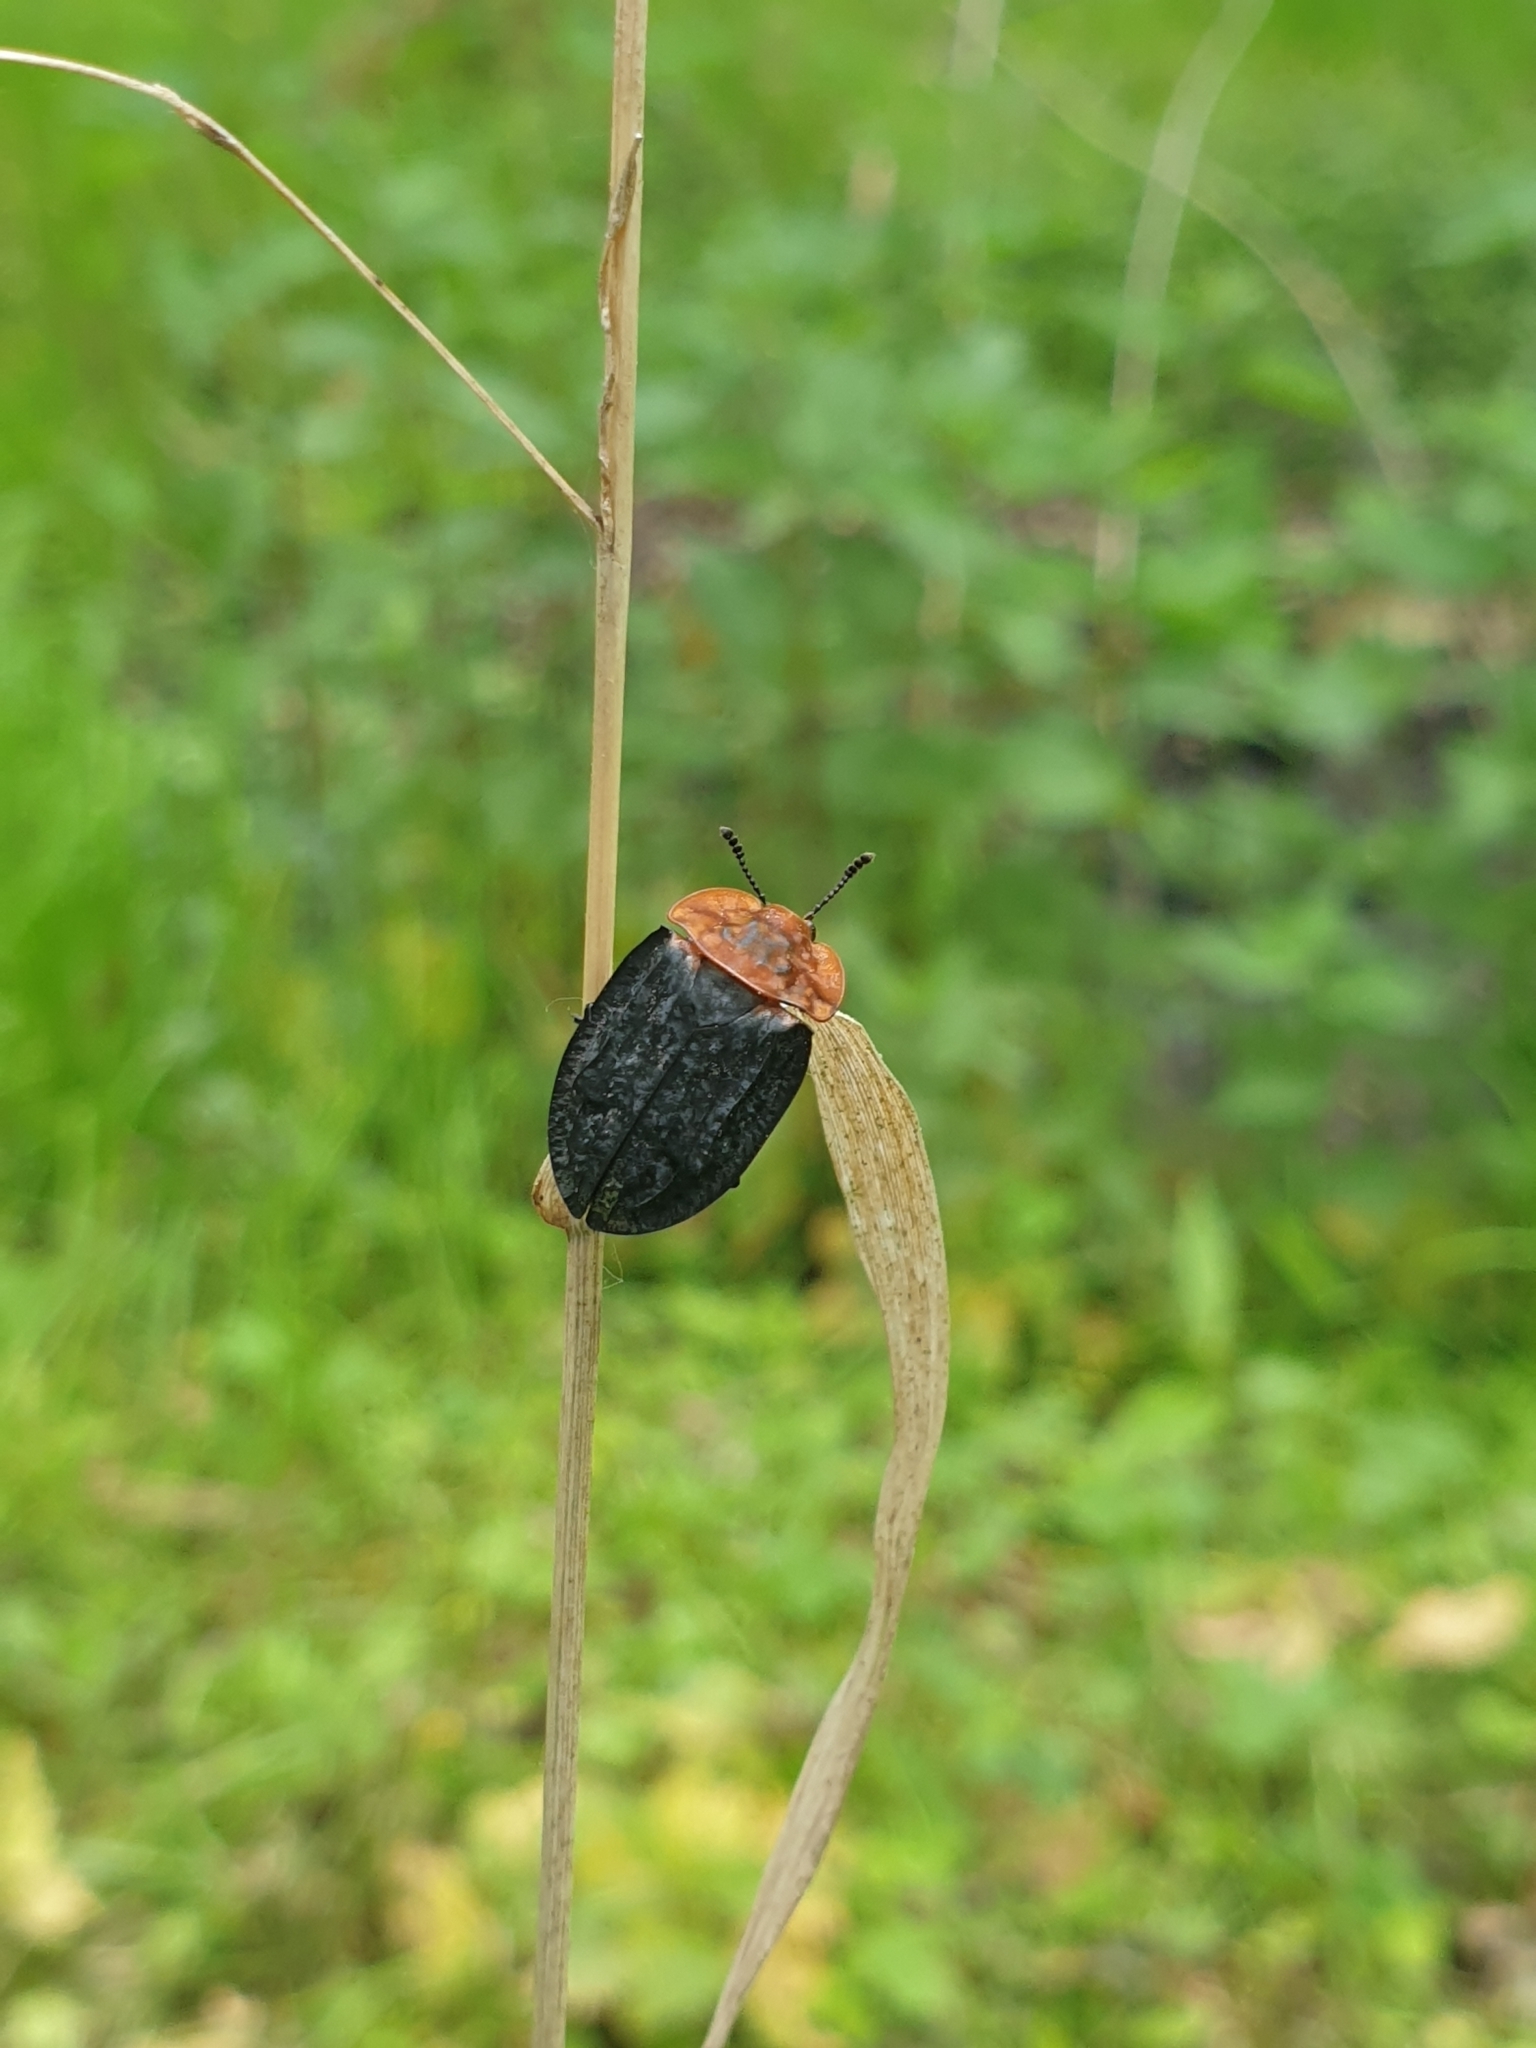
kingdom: Animalia
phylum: Arthropoda
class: Insecta
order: Coleoptera
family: Staphylinidae
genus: Oiceoptoma
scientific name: Oiceoptoma thoracicum
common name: Red-breasted carrion beetle
